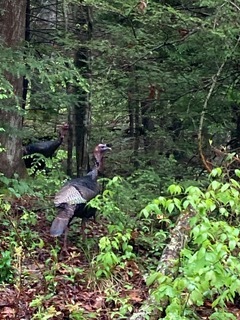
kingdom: Animalia
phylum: Chordata
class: Aves
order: Galliformes
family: Phasianidae
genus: Meleagris
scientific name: Meleagris gallopavo
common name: Wild turkey
